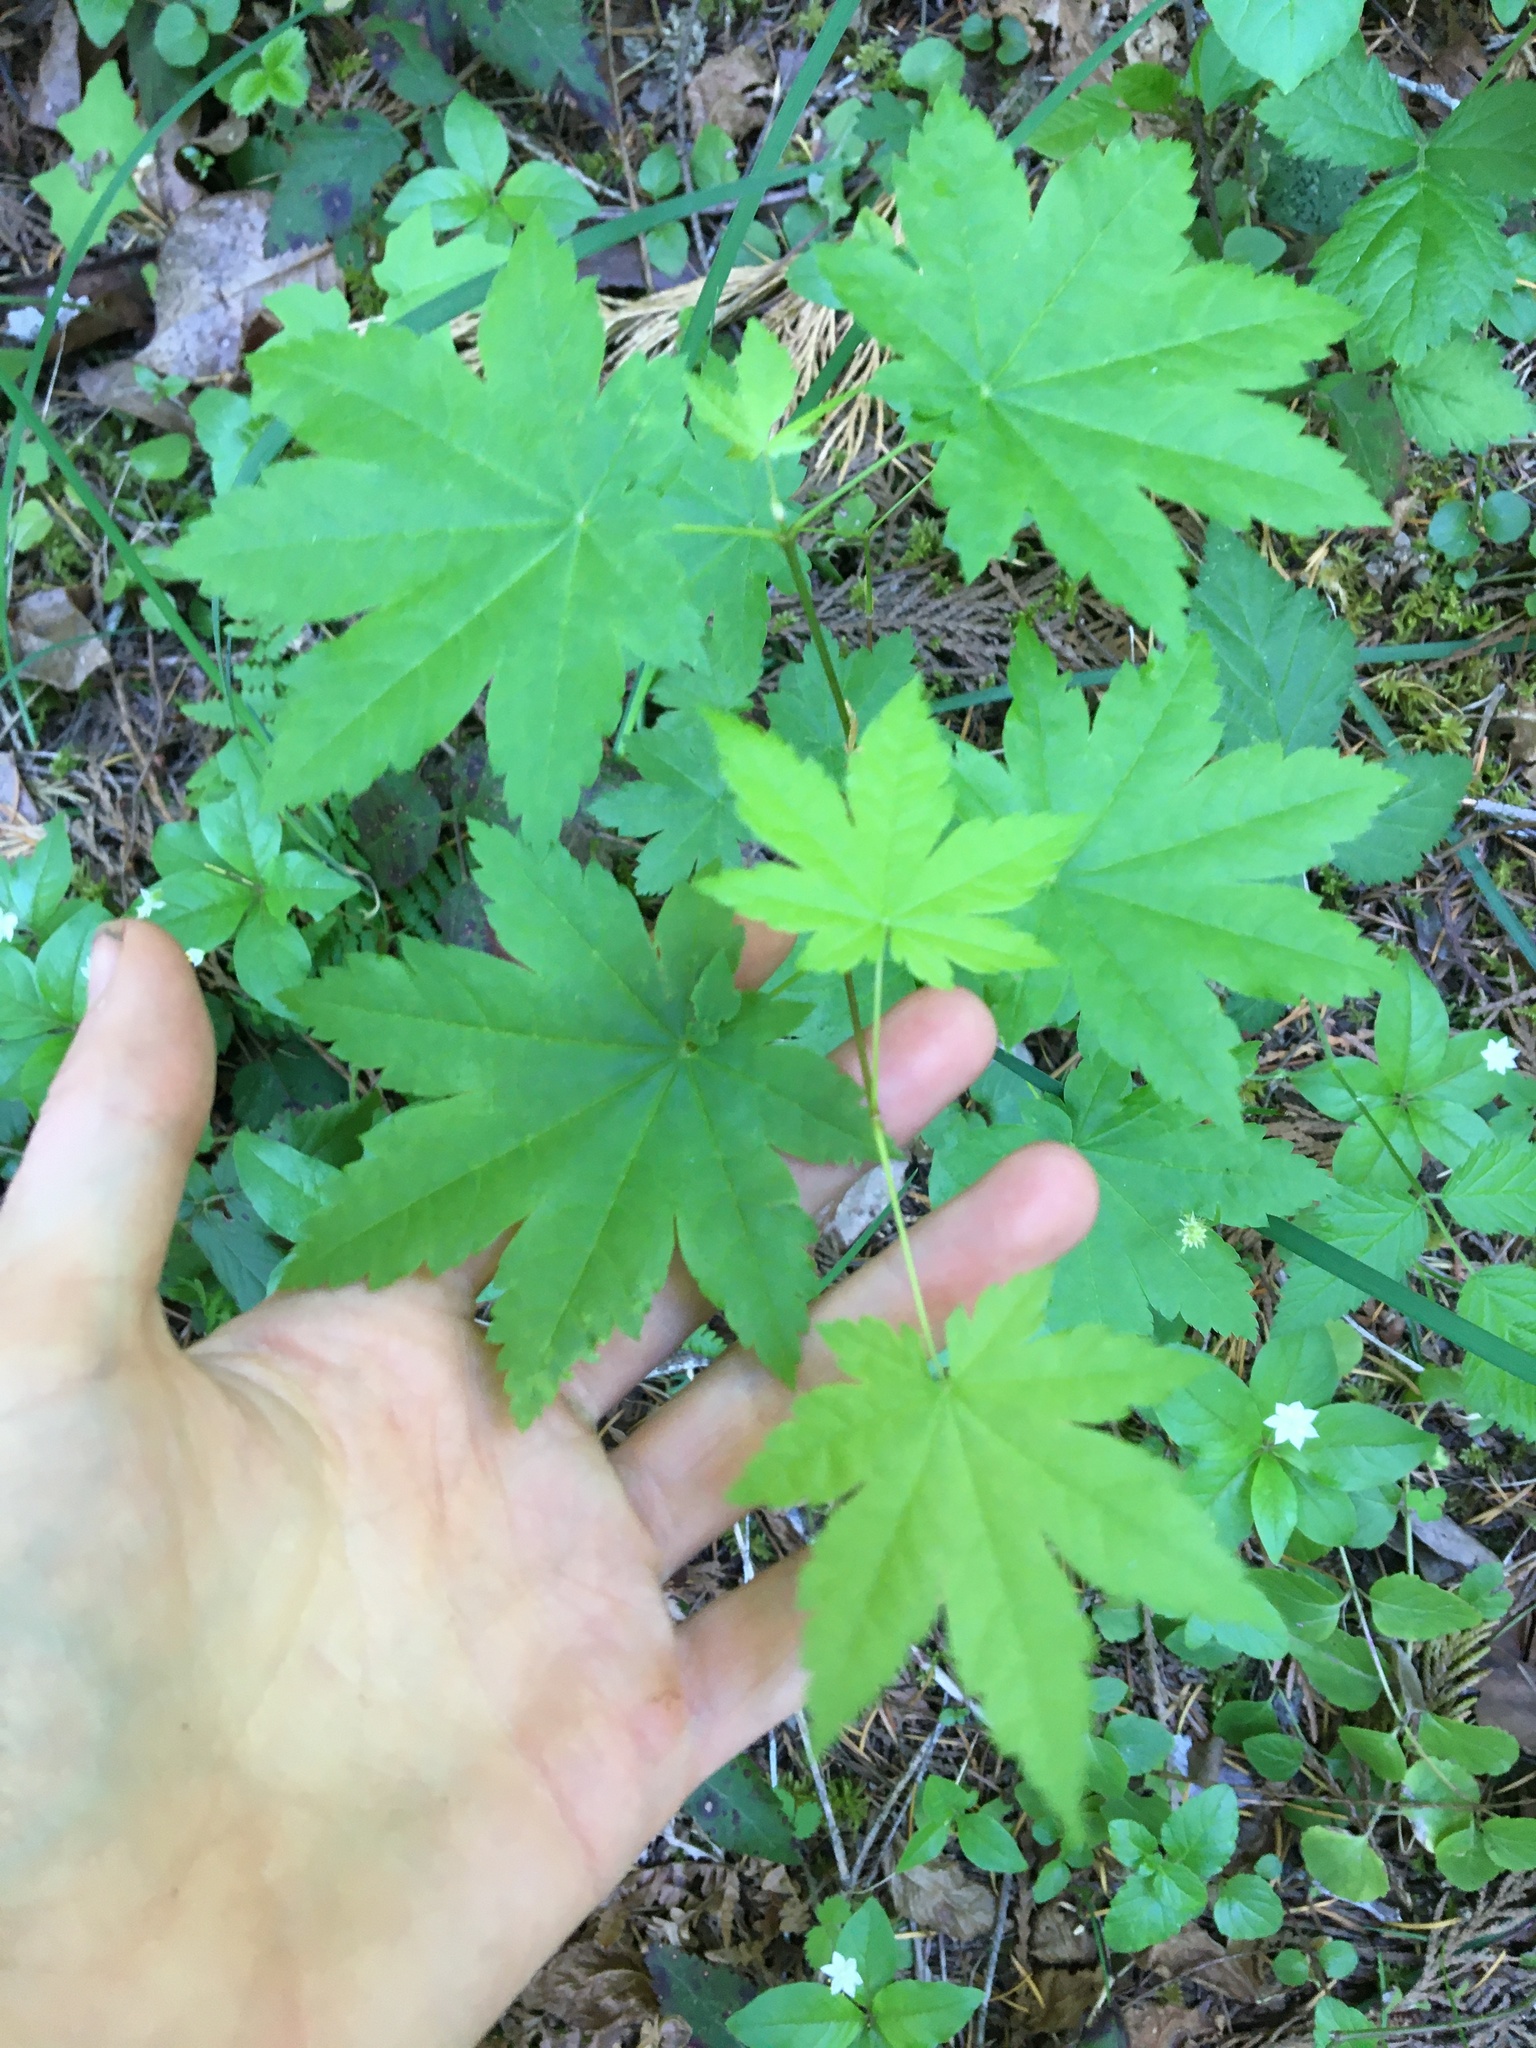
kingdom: Plantae
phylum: Tracheophyta
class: Magnoliopsida
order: Sapindales
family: Sapindaceae
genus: Acer
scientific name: Acer circinatum
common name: Vine maple
